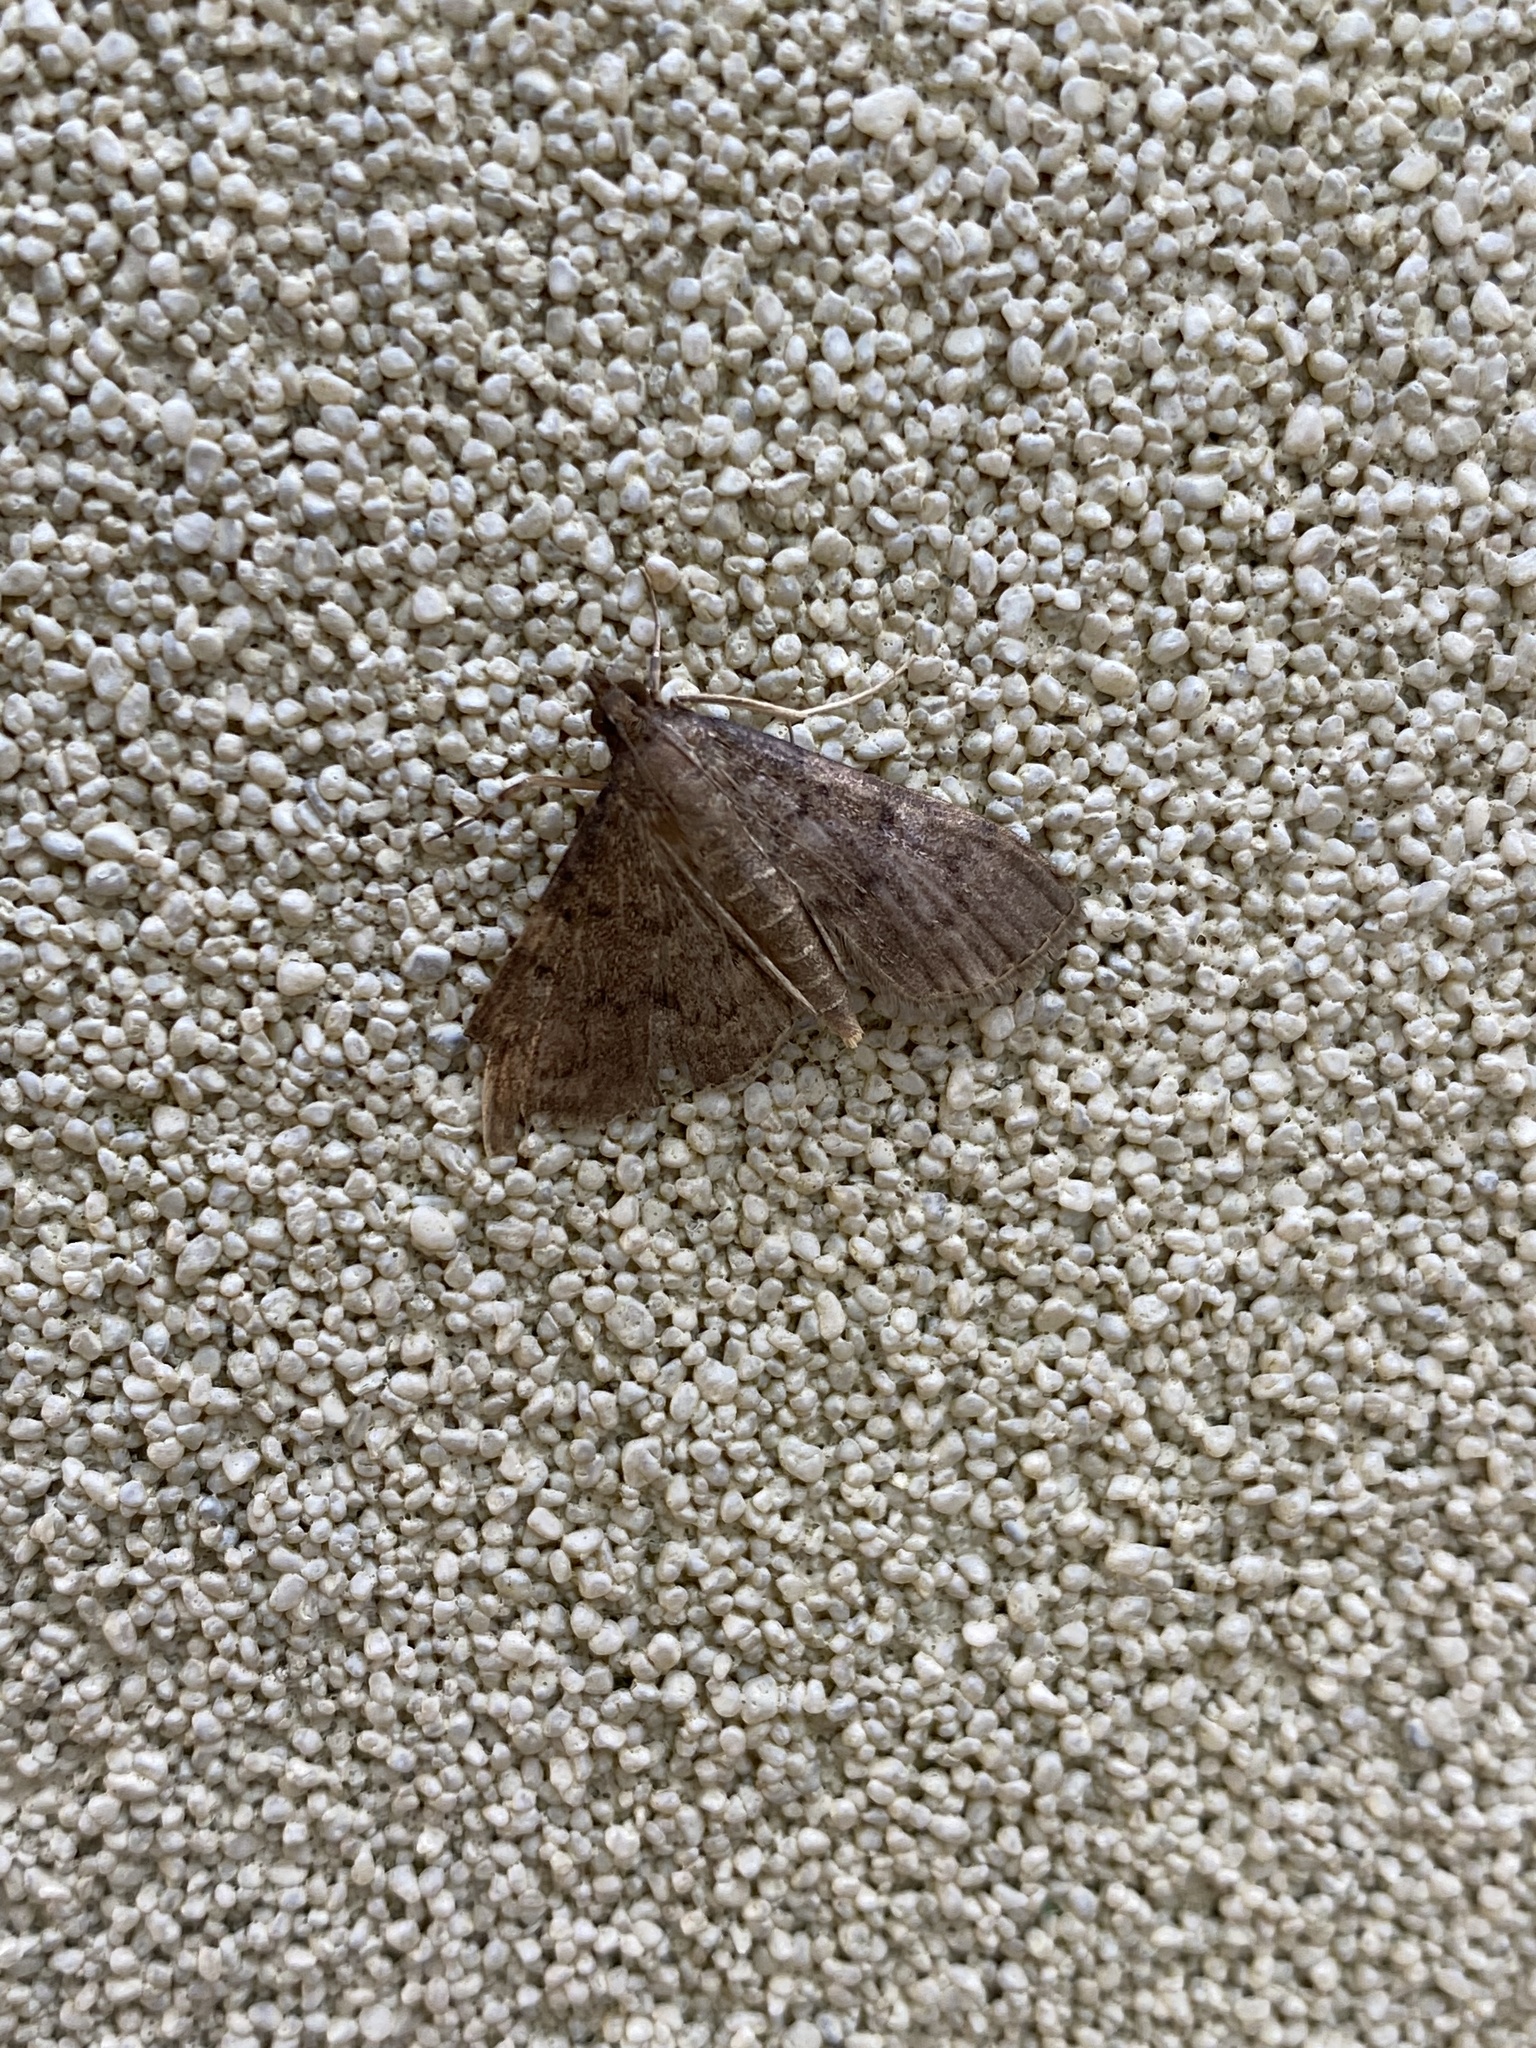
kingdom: Animalia
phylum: Arthropoda
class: Insecta
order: Lepidoptera
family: Crambidae
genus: Herpetogramma
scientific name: Herpetogramma licarsisalis
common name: Grass webworm
